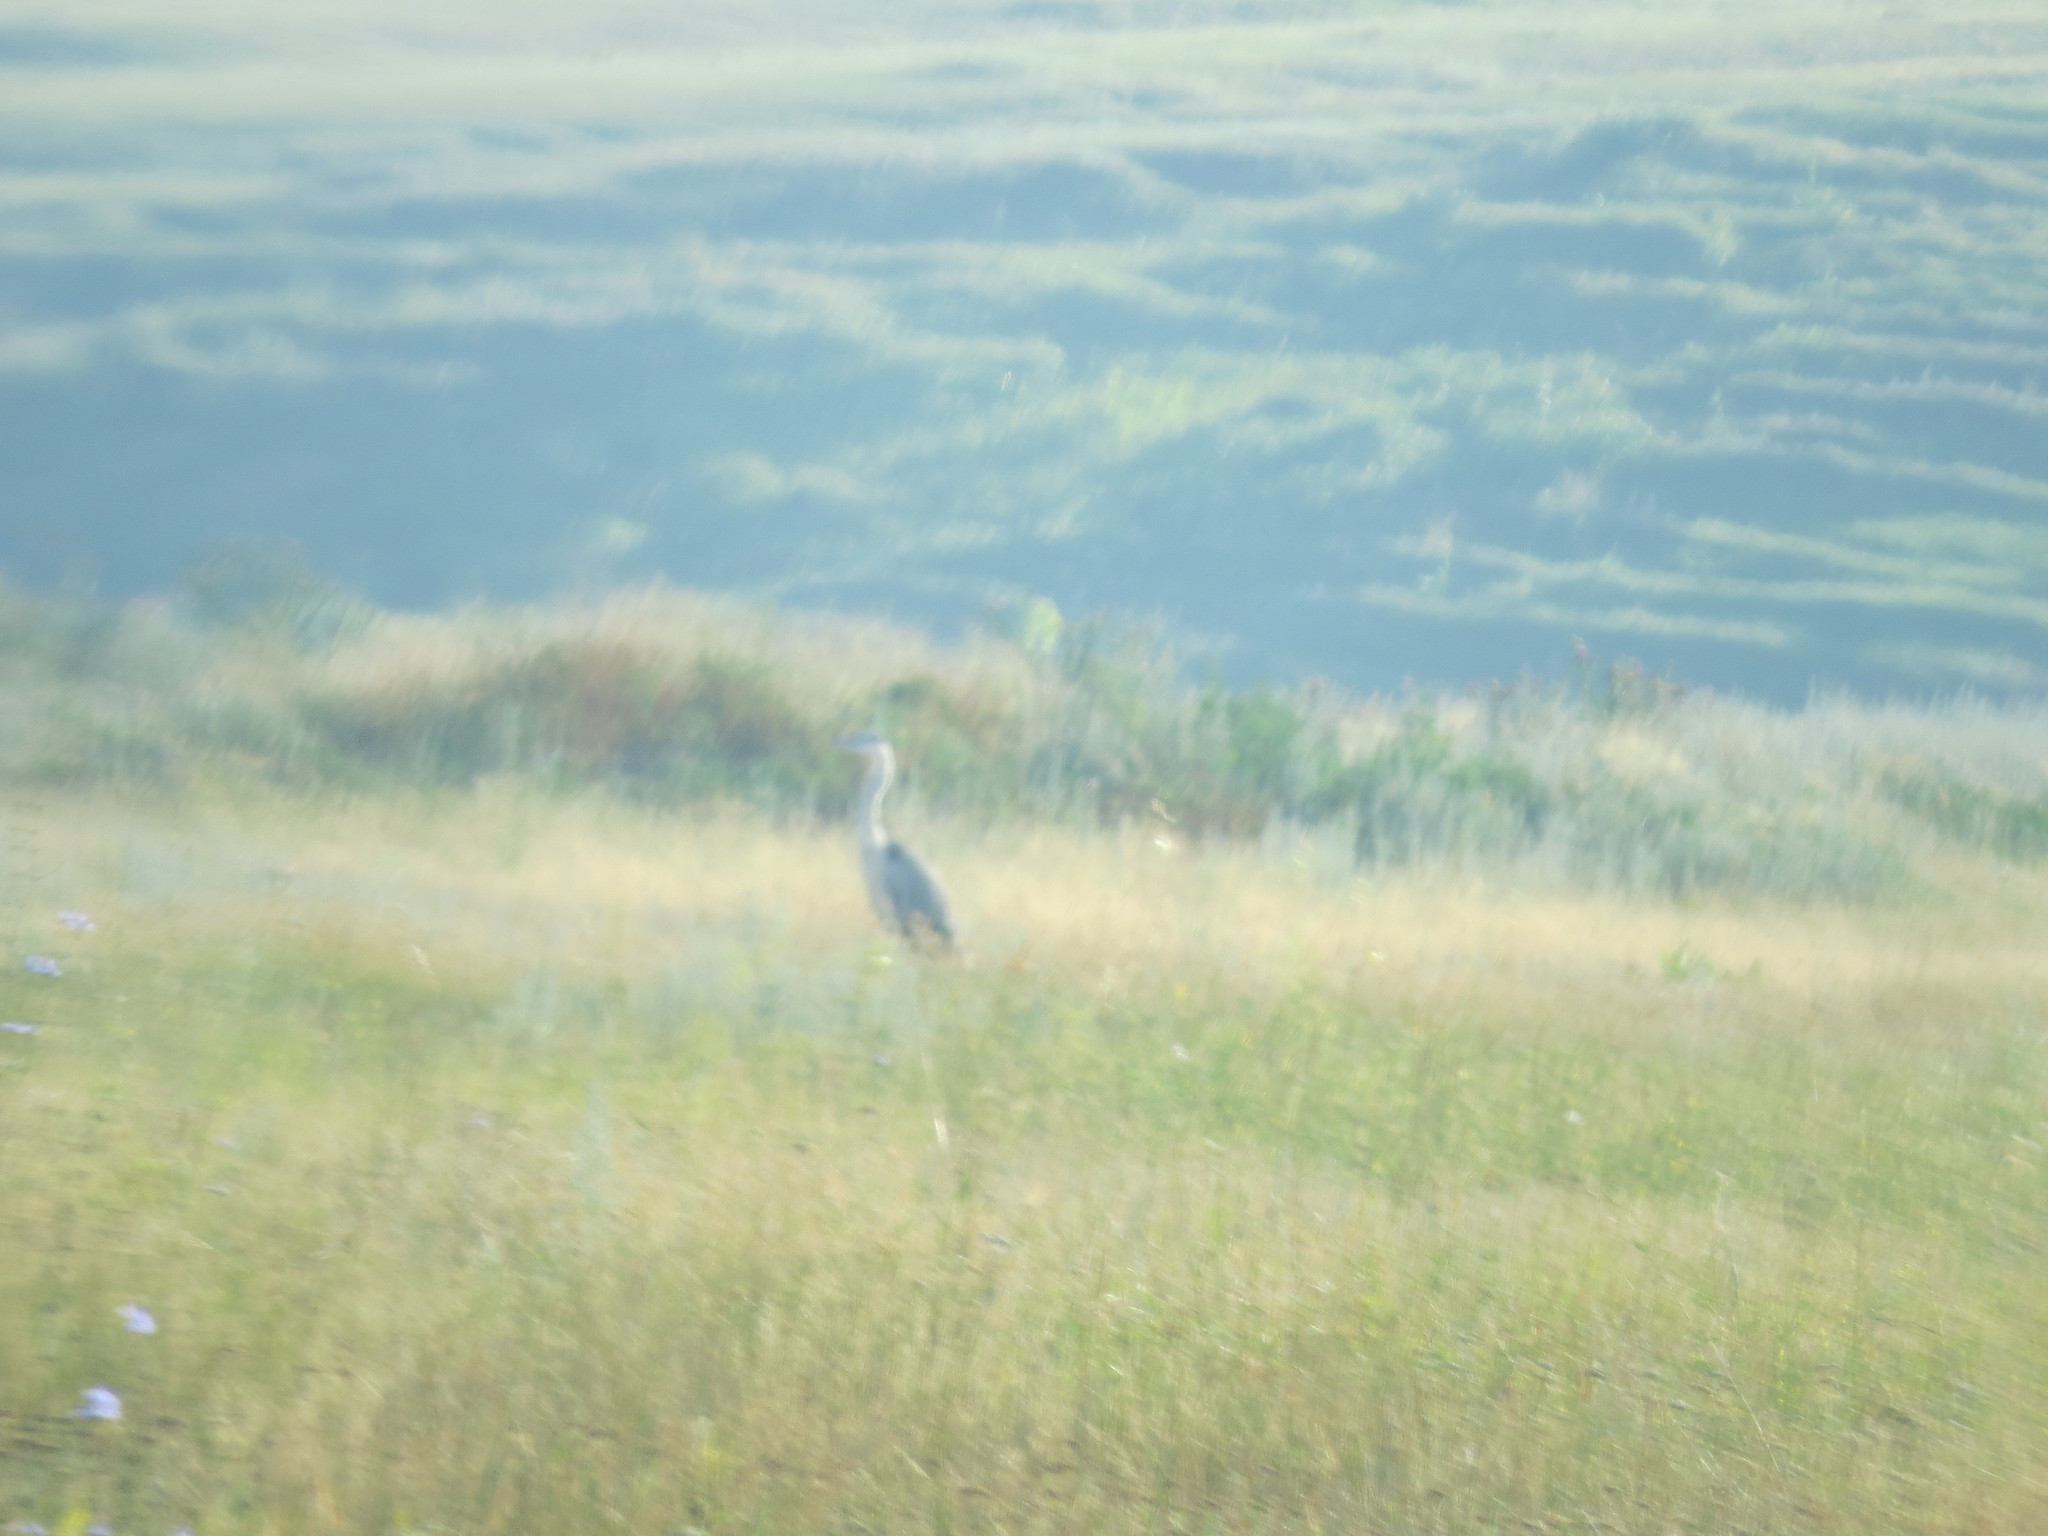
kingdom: Animalia
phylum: Chordata
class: Aves
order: Pelecaniformes
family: Ardeidae
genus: Ardea
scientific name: Ardea cinerea
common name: Grey heron
